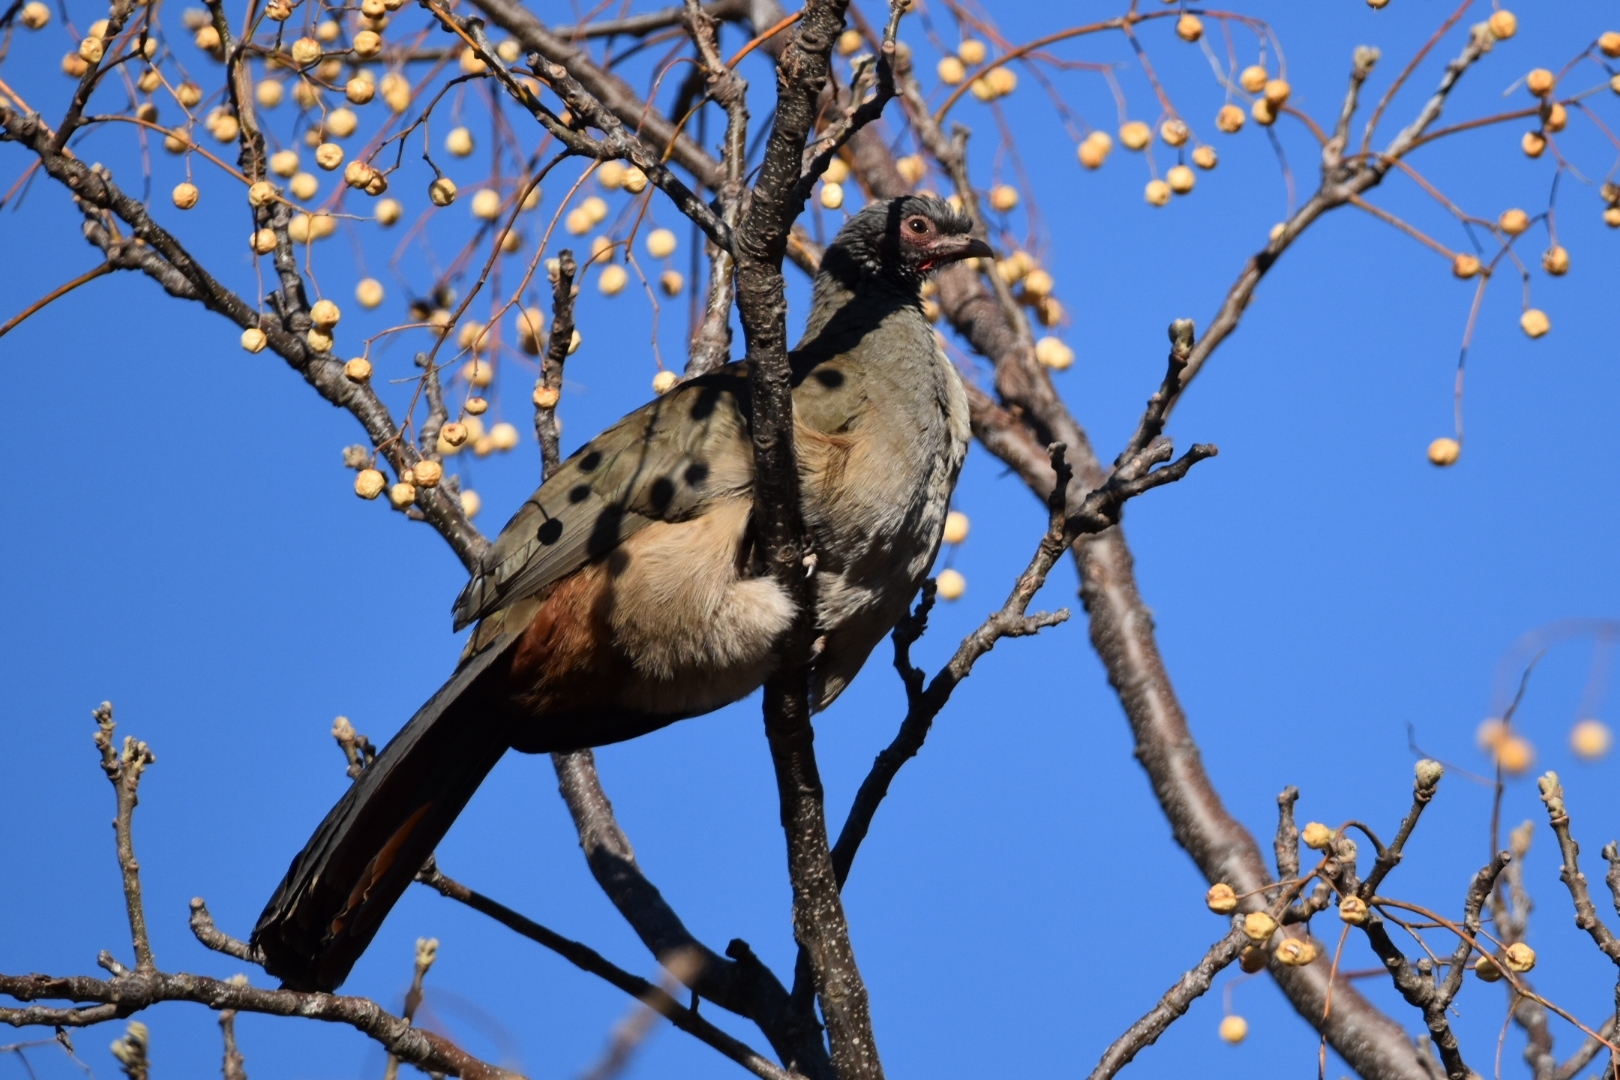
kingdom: Animalia
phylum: Chordata
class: Aves
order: Galliformes
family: Cracidae
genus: Ortalis
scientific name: Ortalis canicollis
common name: Chaco chachalaca
